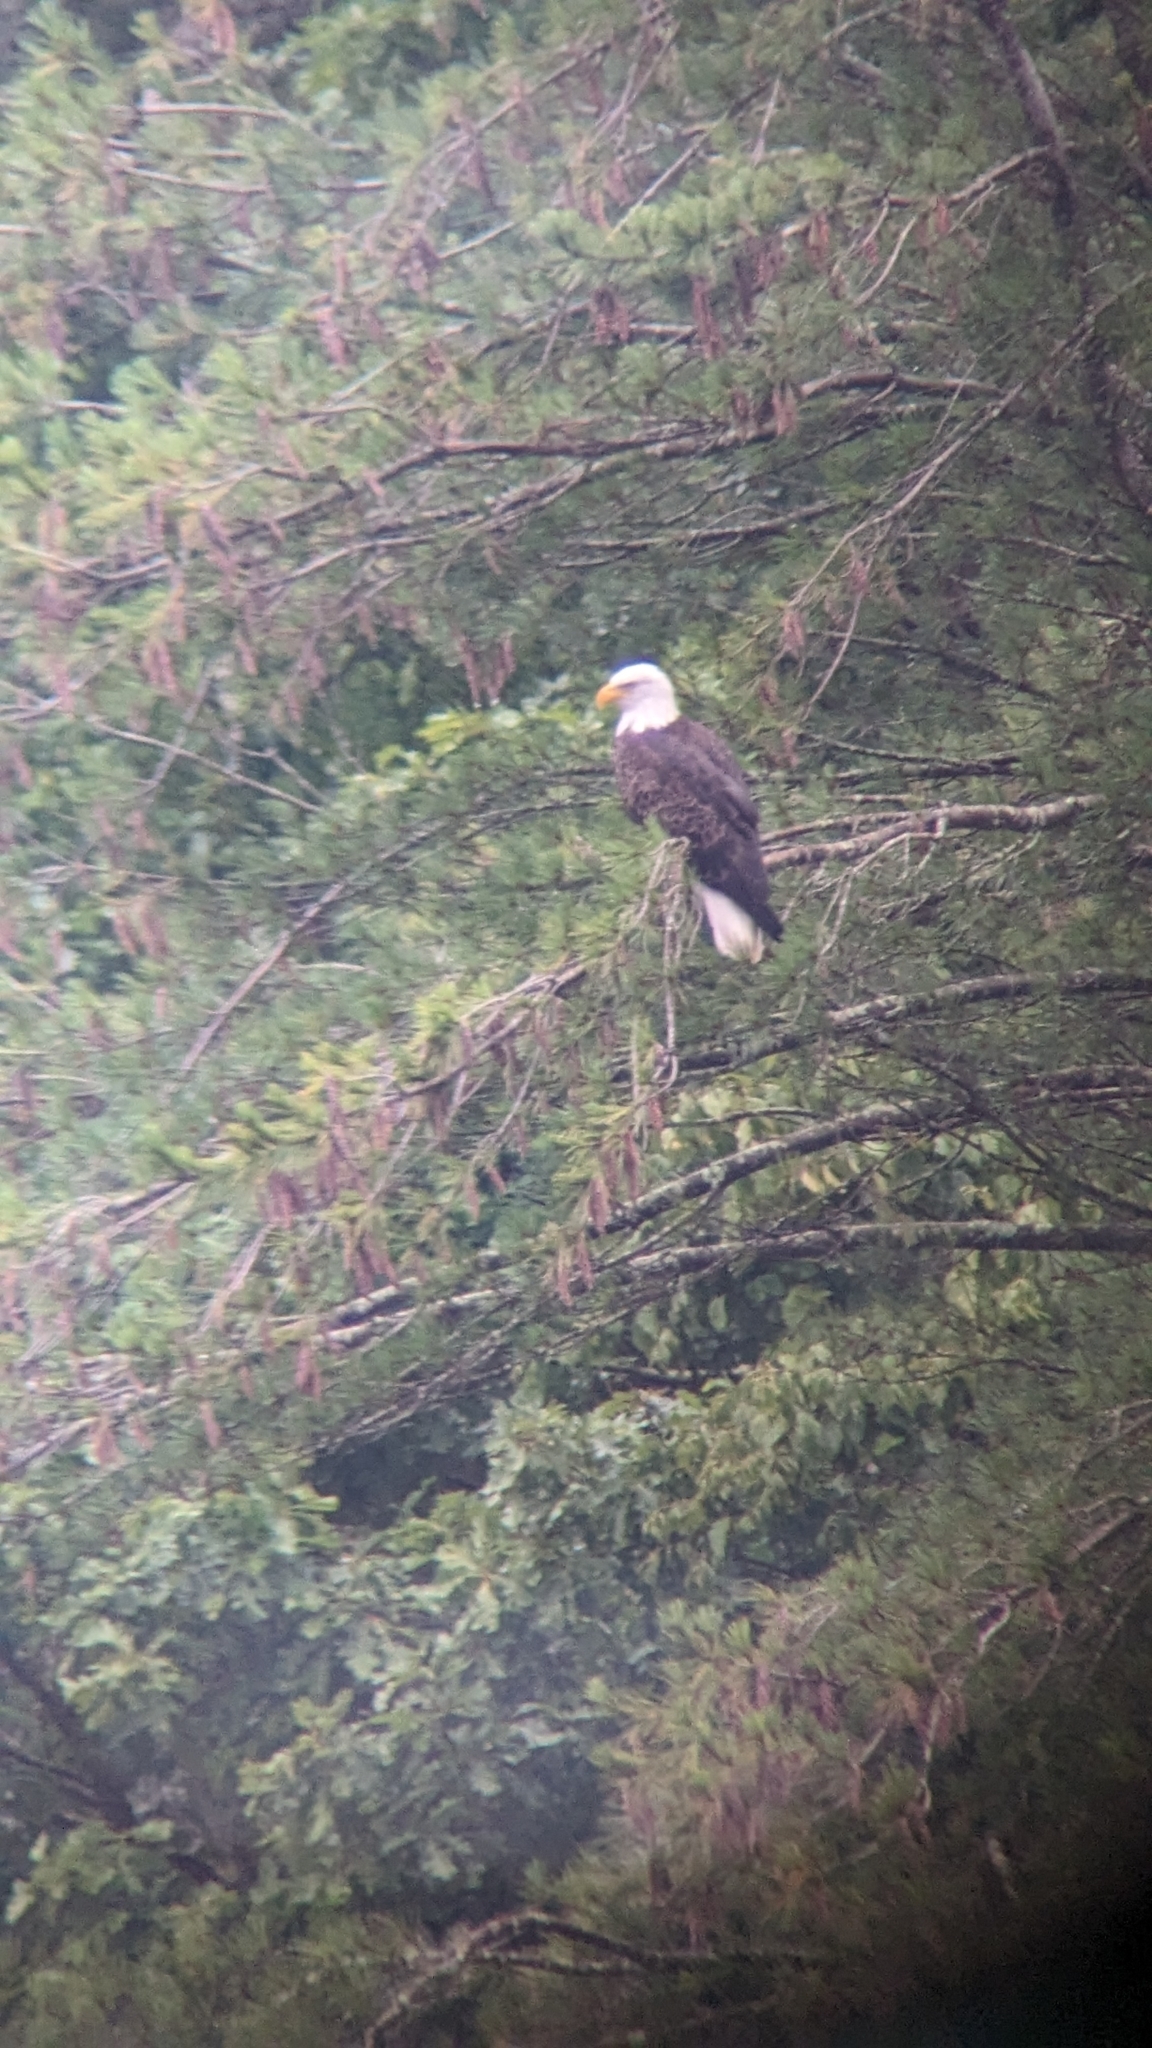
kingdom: Animalia
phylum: Chordata
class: Aves
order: Accipitriformes
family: Accipitridae
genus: Haliaeetus
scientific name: Haliaeetus leucocephalus
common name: Bald eagle
